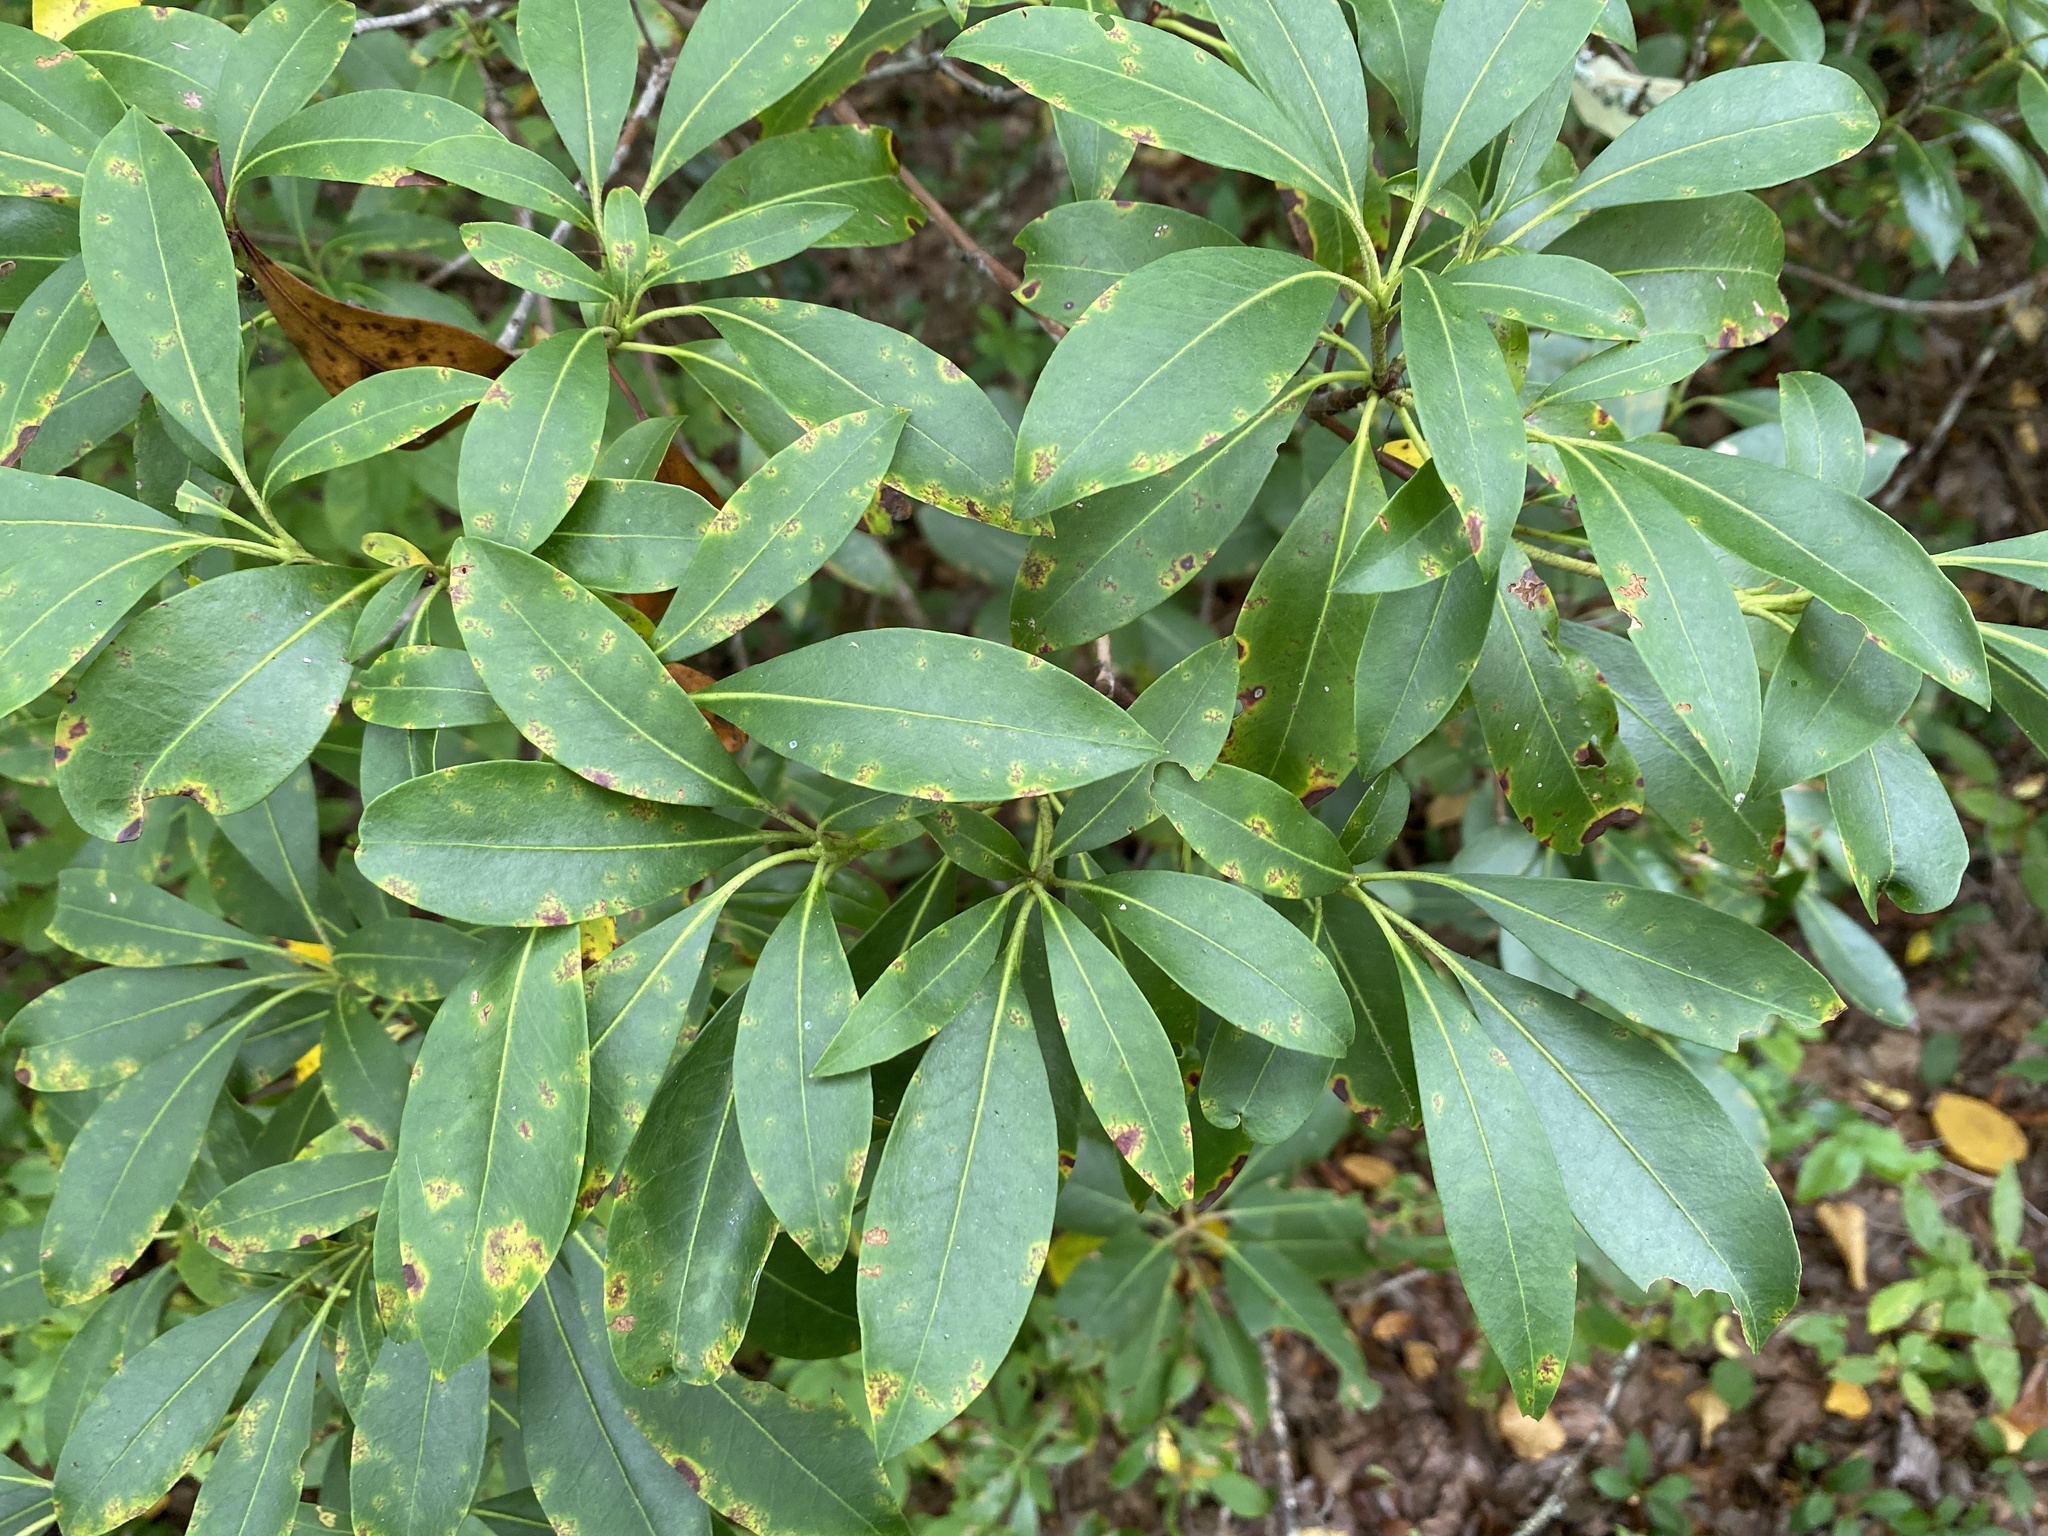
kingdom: Plantae
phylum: Tracheophyta
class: Magnoliopsida
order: Ericales
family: Ericaceae
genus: Kalmia
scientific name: Kalmia latifolia
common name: Mountain-laurel
